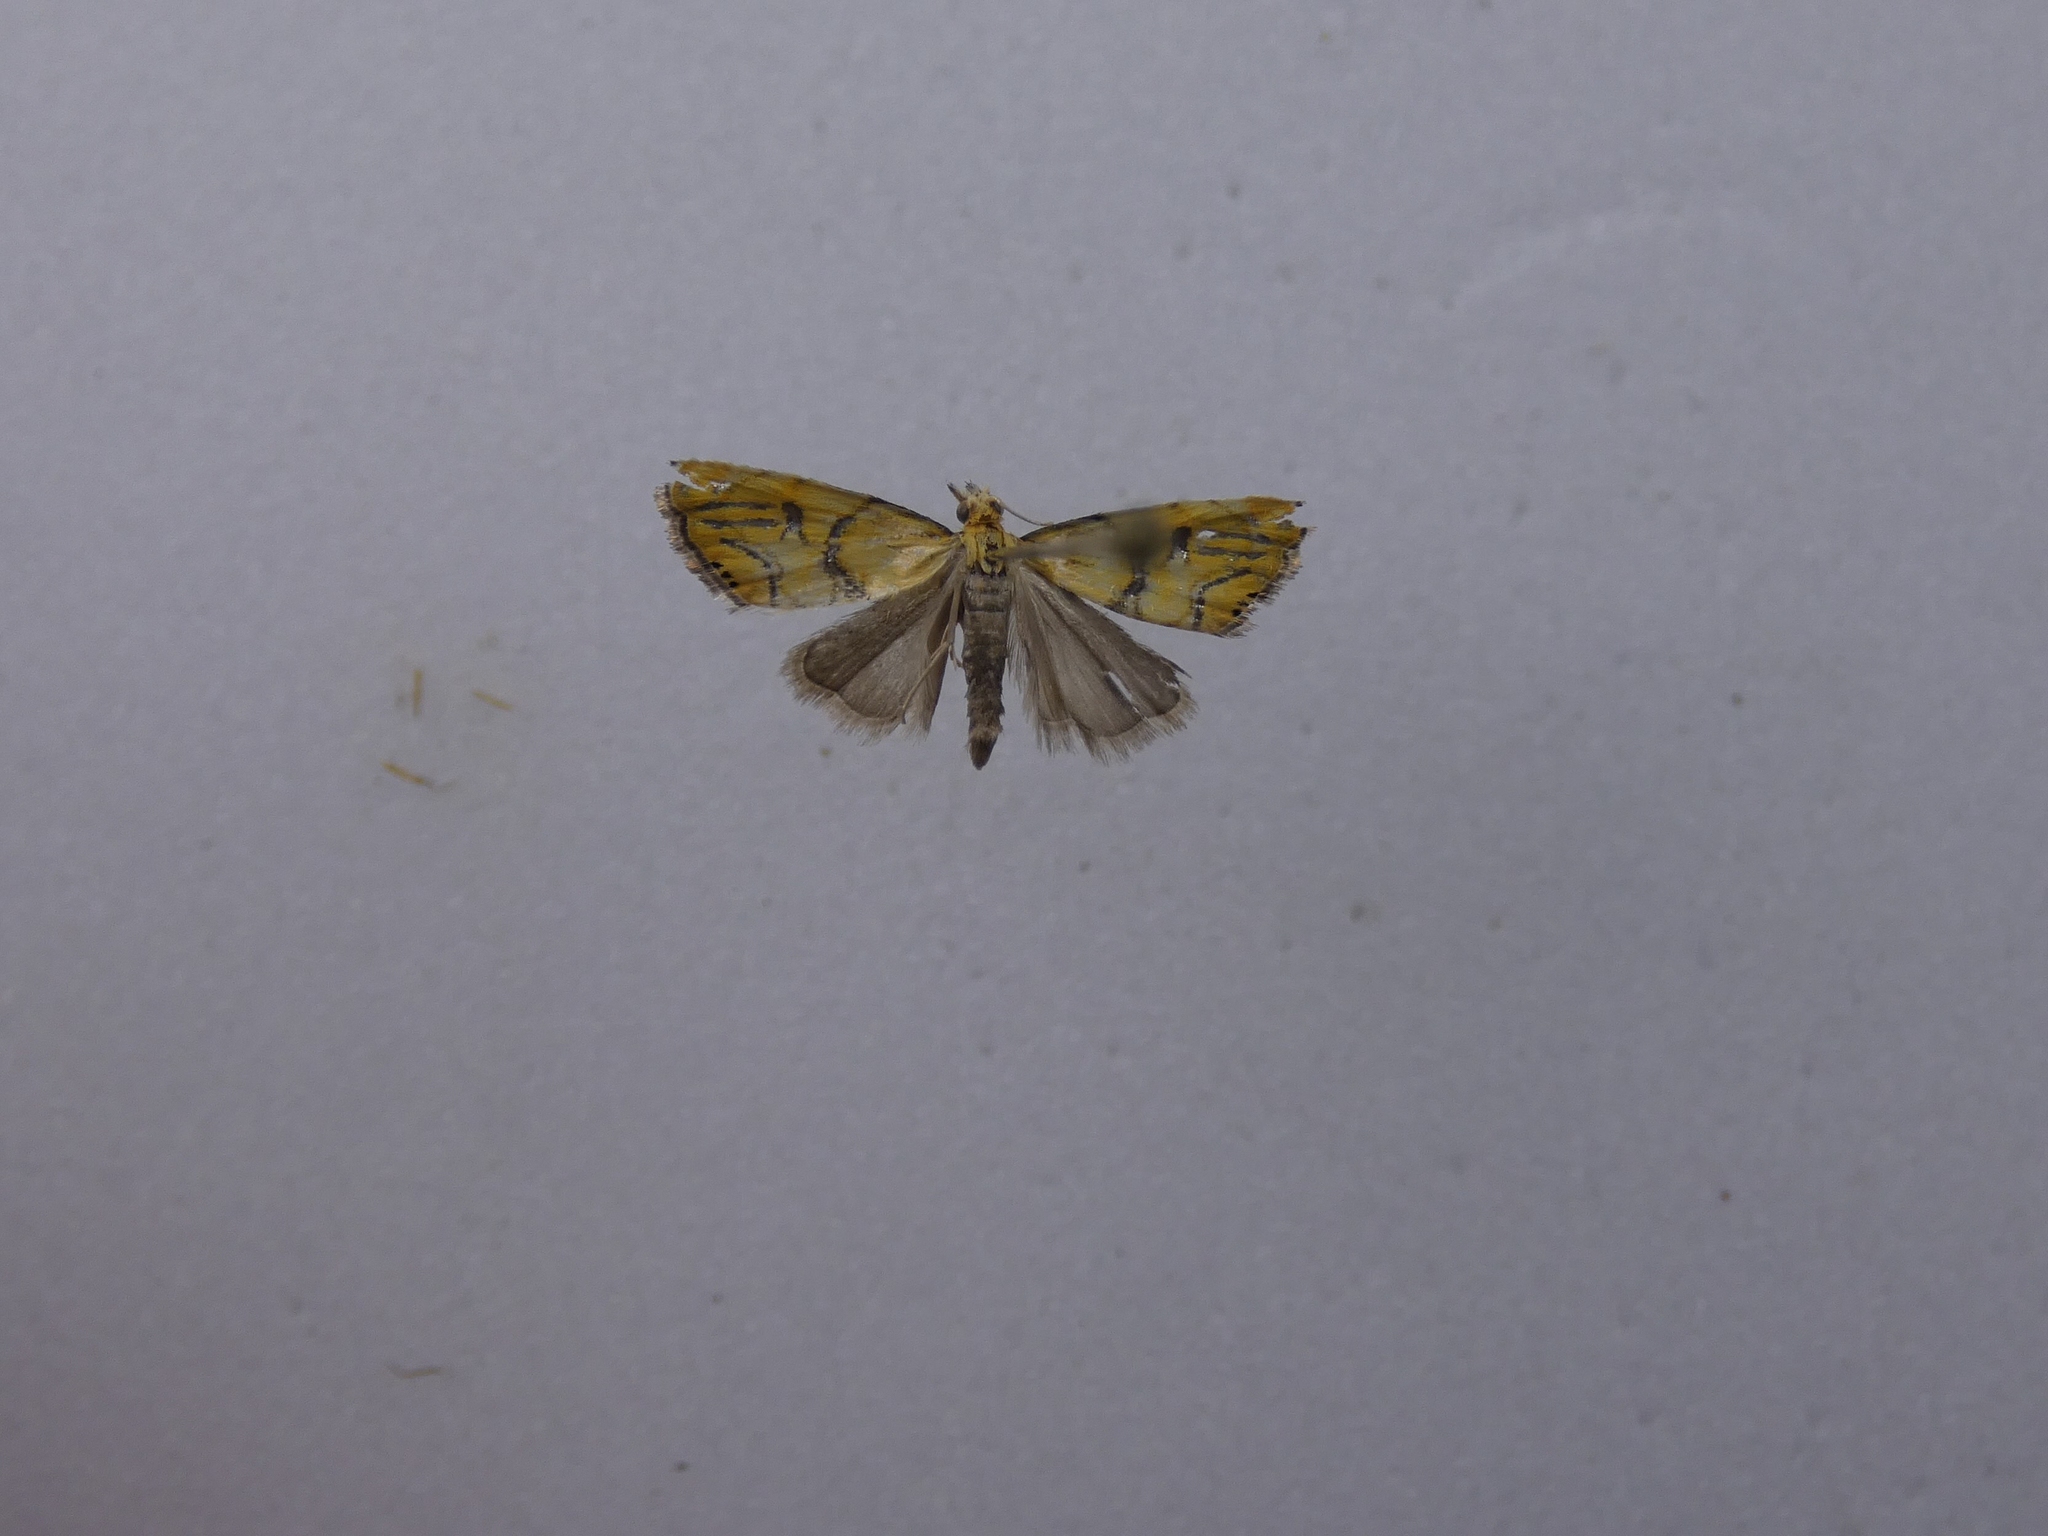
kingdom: Animalia
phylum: Arthropoda
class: Insecta
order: Lepidoptera
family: Crambidae
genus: Glaucocharis
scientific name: Glaucocharis auriscriptella
